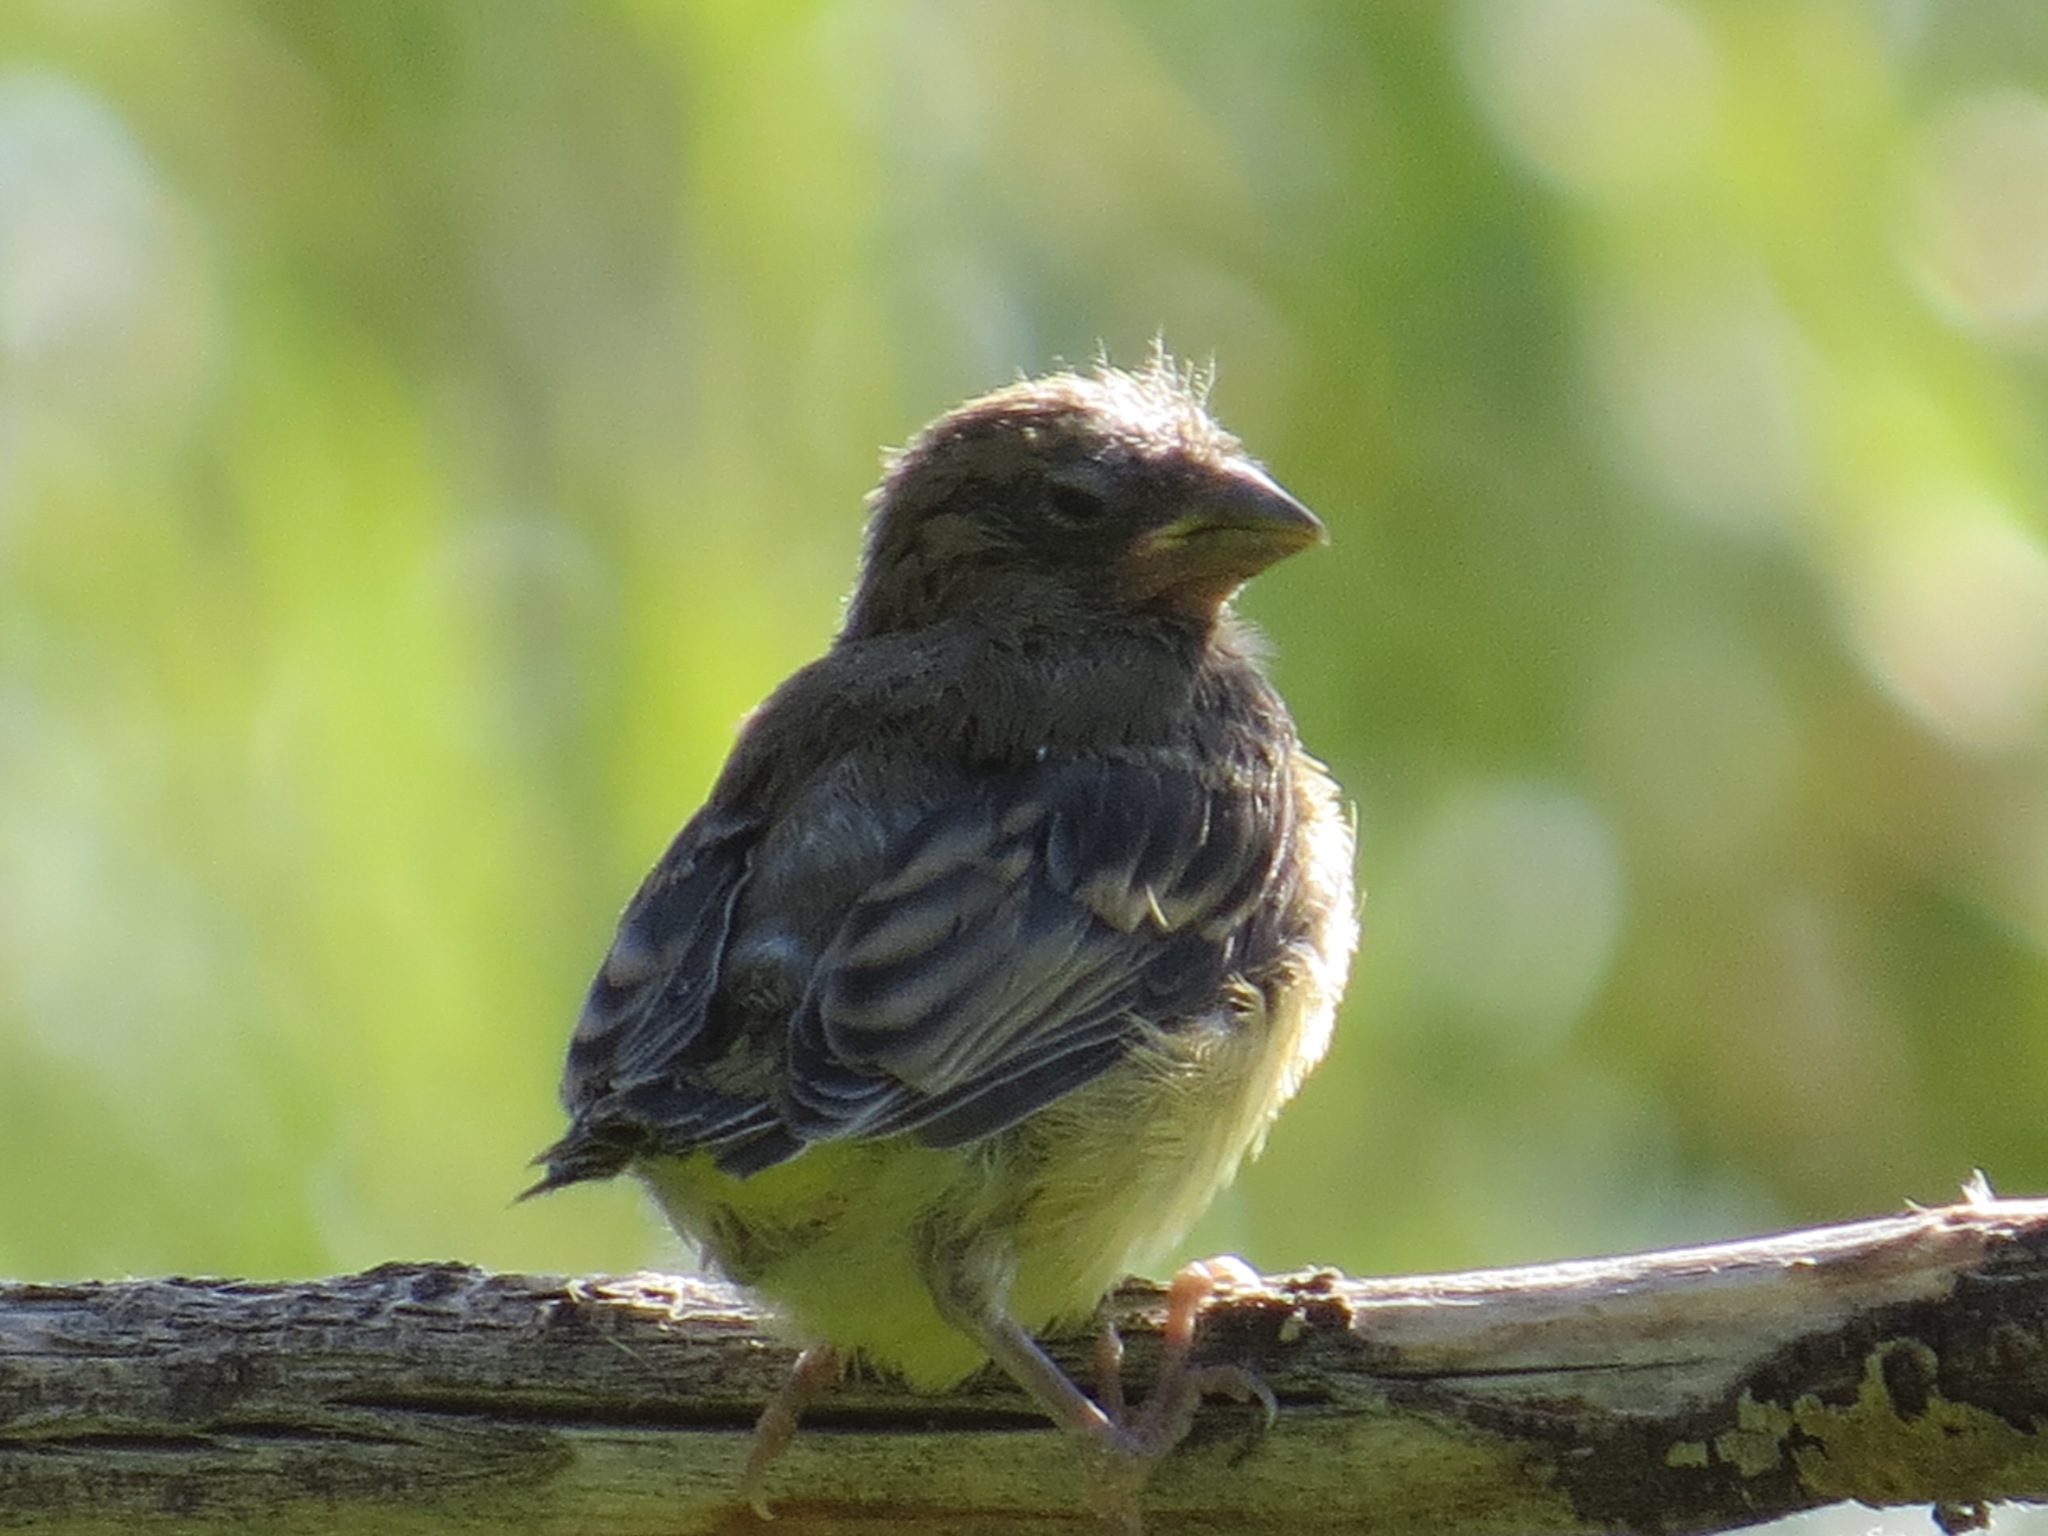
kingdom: Animalia
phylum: Chordata
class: Aves
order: Passeriformes
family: Fringillidae
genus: Spinus
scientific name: Spinus psaltria
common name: Lesser goldfinch
